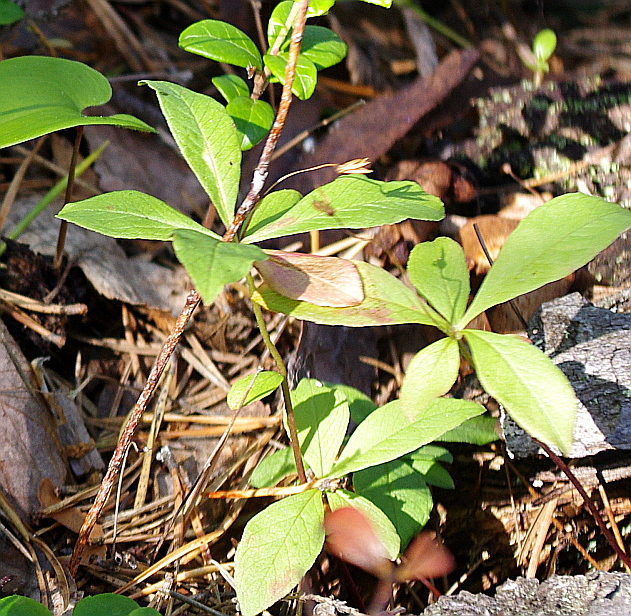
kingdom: Plantae
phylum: Tracheophyta
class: Magnoliopsida
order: Ericales
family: Primulaceae
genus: Lysimachia
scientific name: Lysimachia europaea
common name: Arctic starflower
